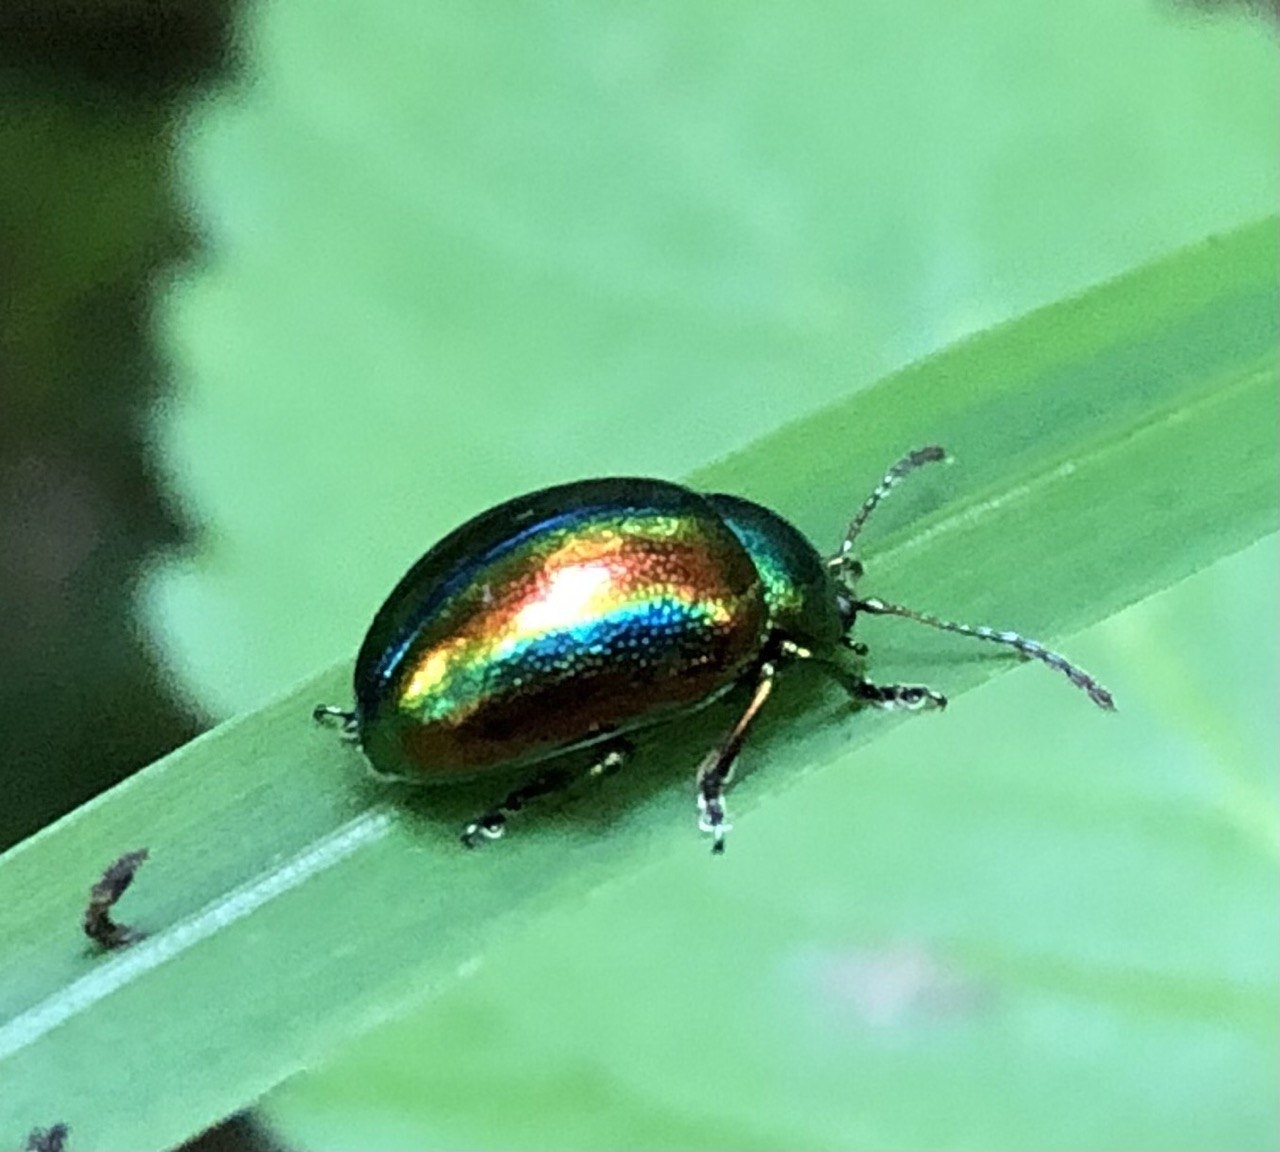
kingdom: Animalia
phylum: Arthropoda
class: Insecta
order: Coleoptera
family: Chrysomelidae
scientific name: Chrysomelidae
